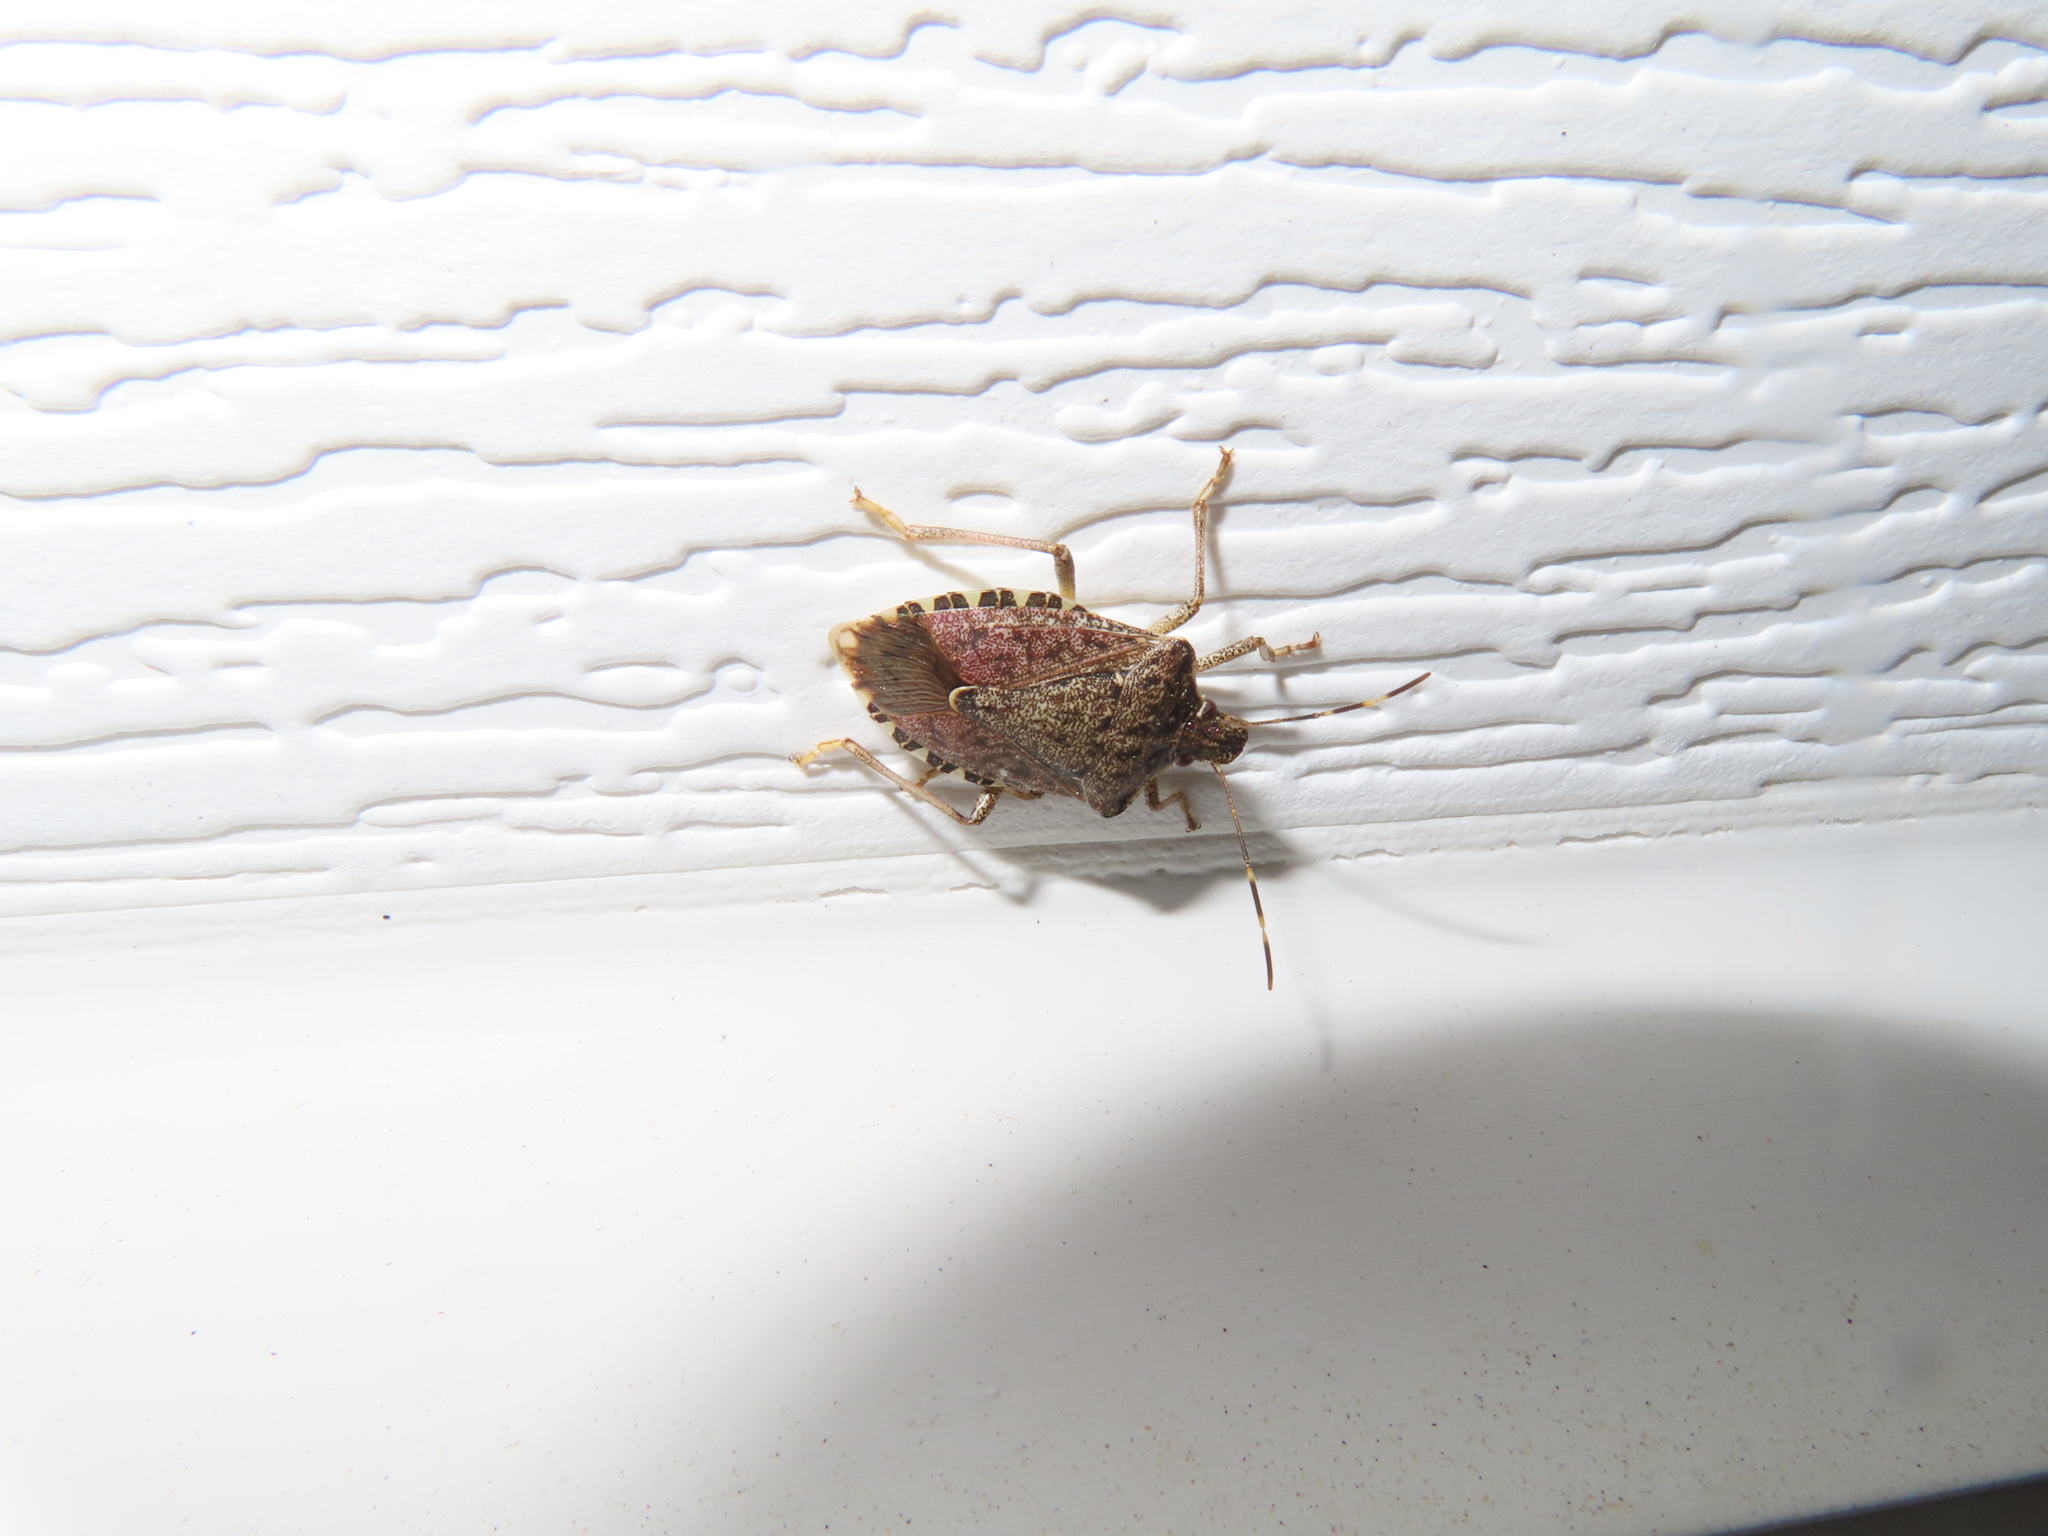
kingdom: Animalia
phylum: Arthropoda
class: Insecta
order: Hemiptera
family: Pentatomidae
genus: Halyomorpha
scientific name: Halyomorpha halys
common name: Brown marmorated stink bug
